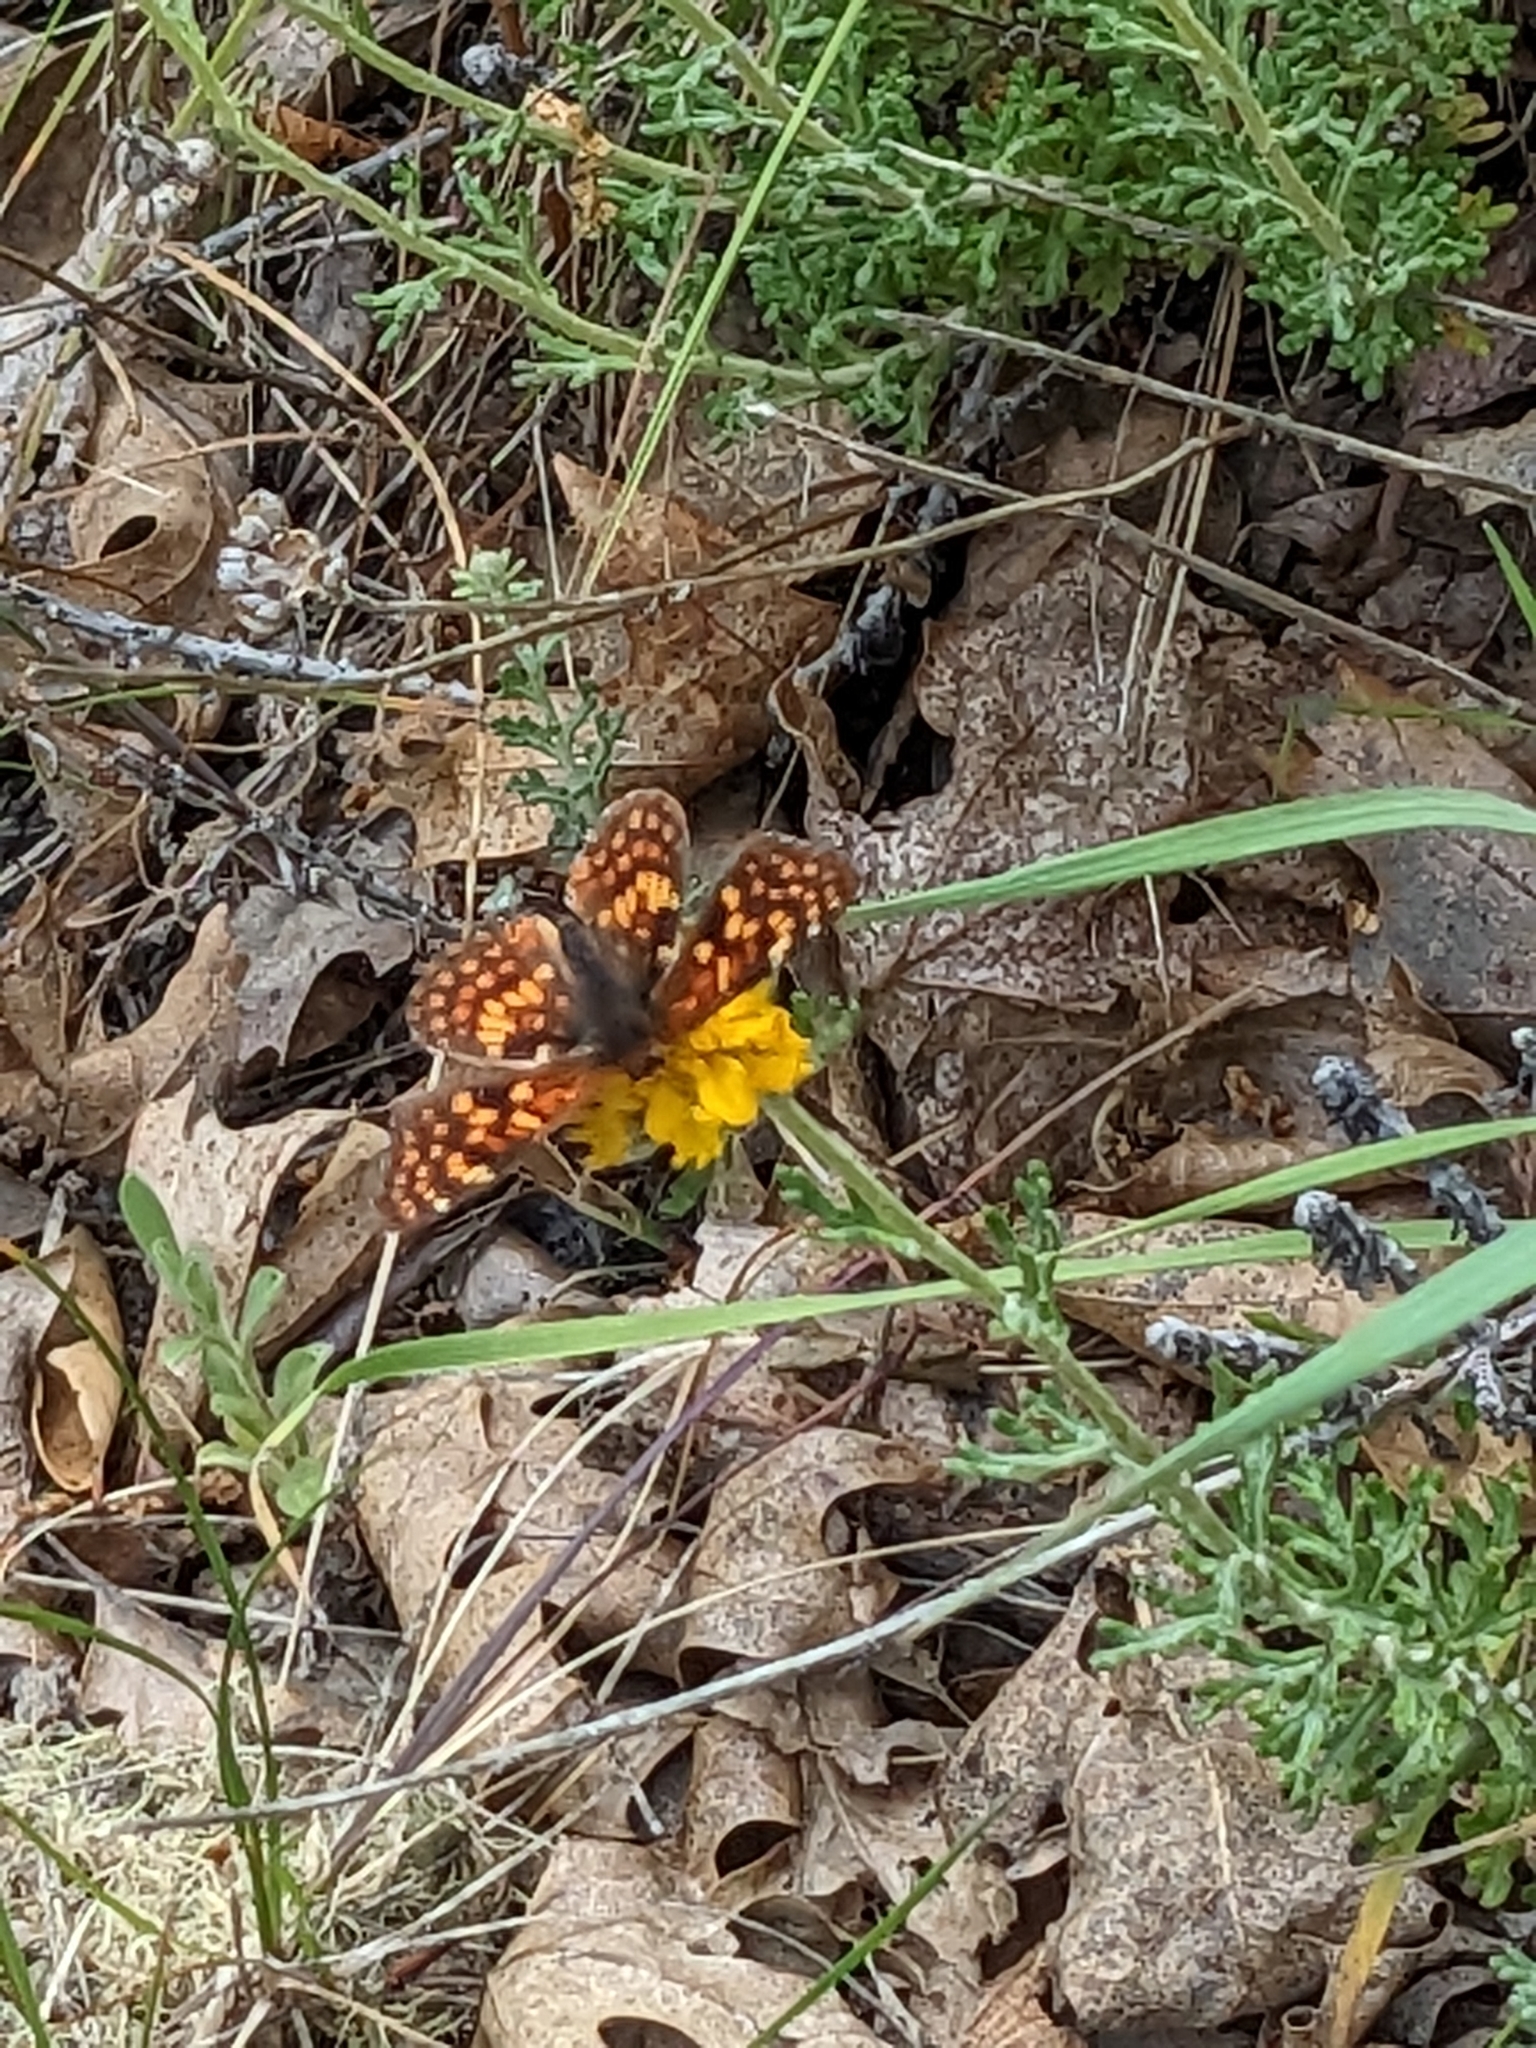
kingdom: Animalia
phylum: Arthropoda
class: Insecta
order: Lepidoptera
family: Nymphalidae
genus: Chlosyne
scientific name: Chlosyne palla
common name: Northern checkerspot
